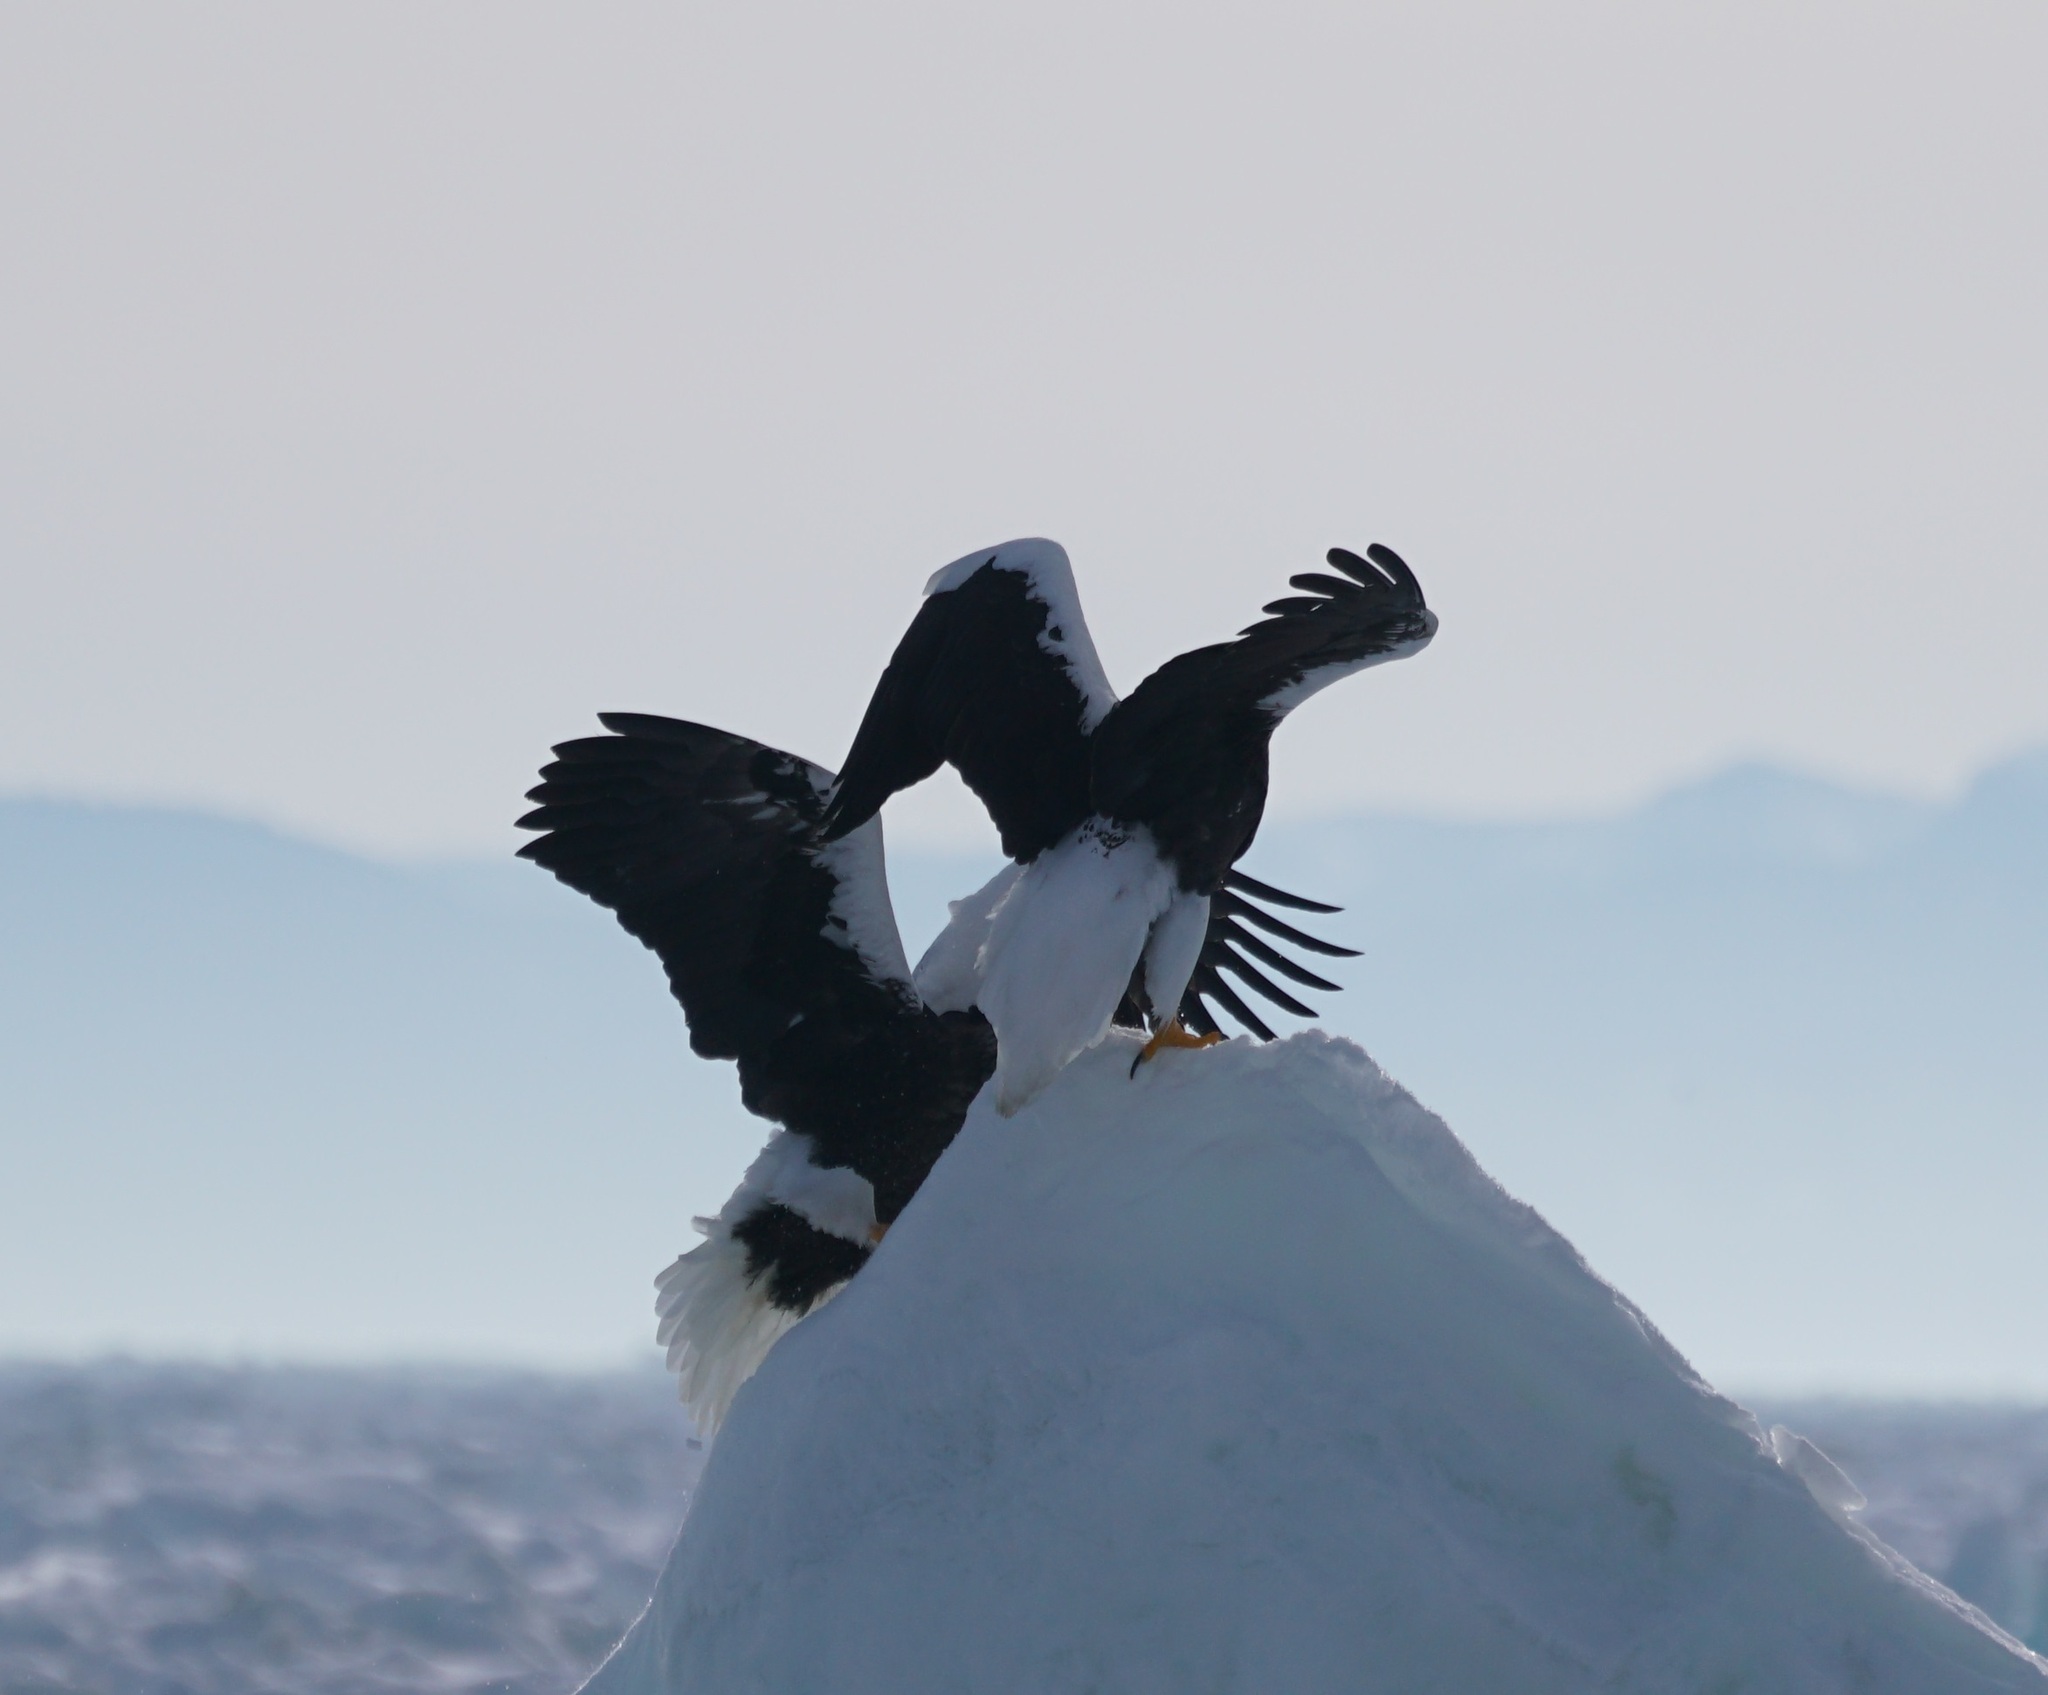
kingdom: Animalia
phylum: Chordata
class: Aves
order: Accipitriformes
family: Accipitridae
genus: Haliaeetus
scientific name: Haliaeetus pelagicus
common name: Steller's sea eagle
